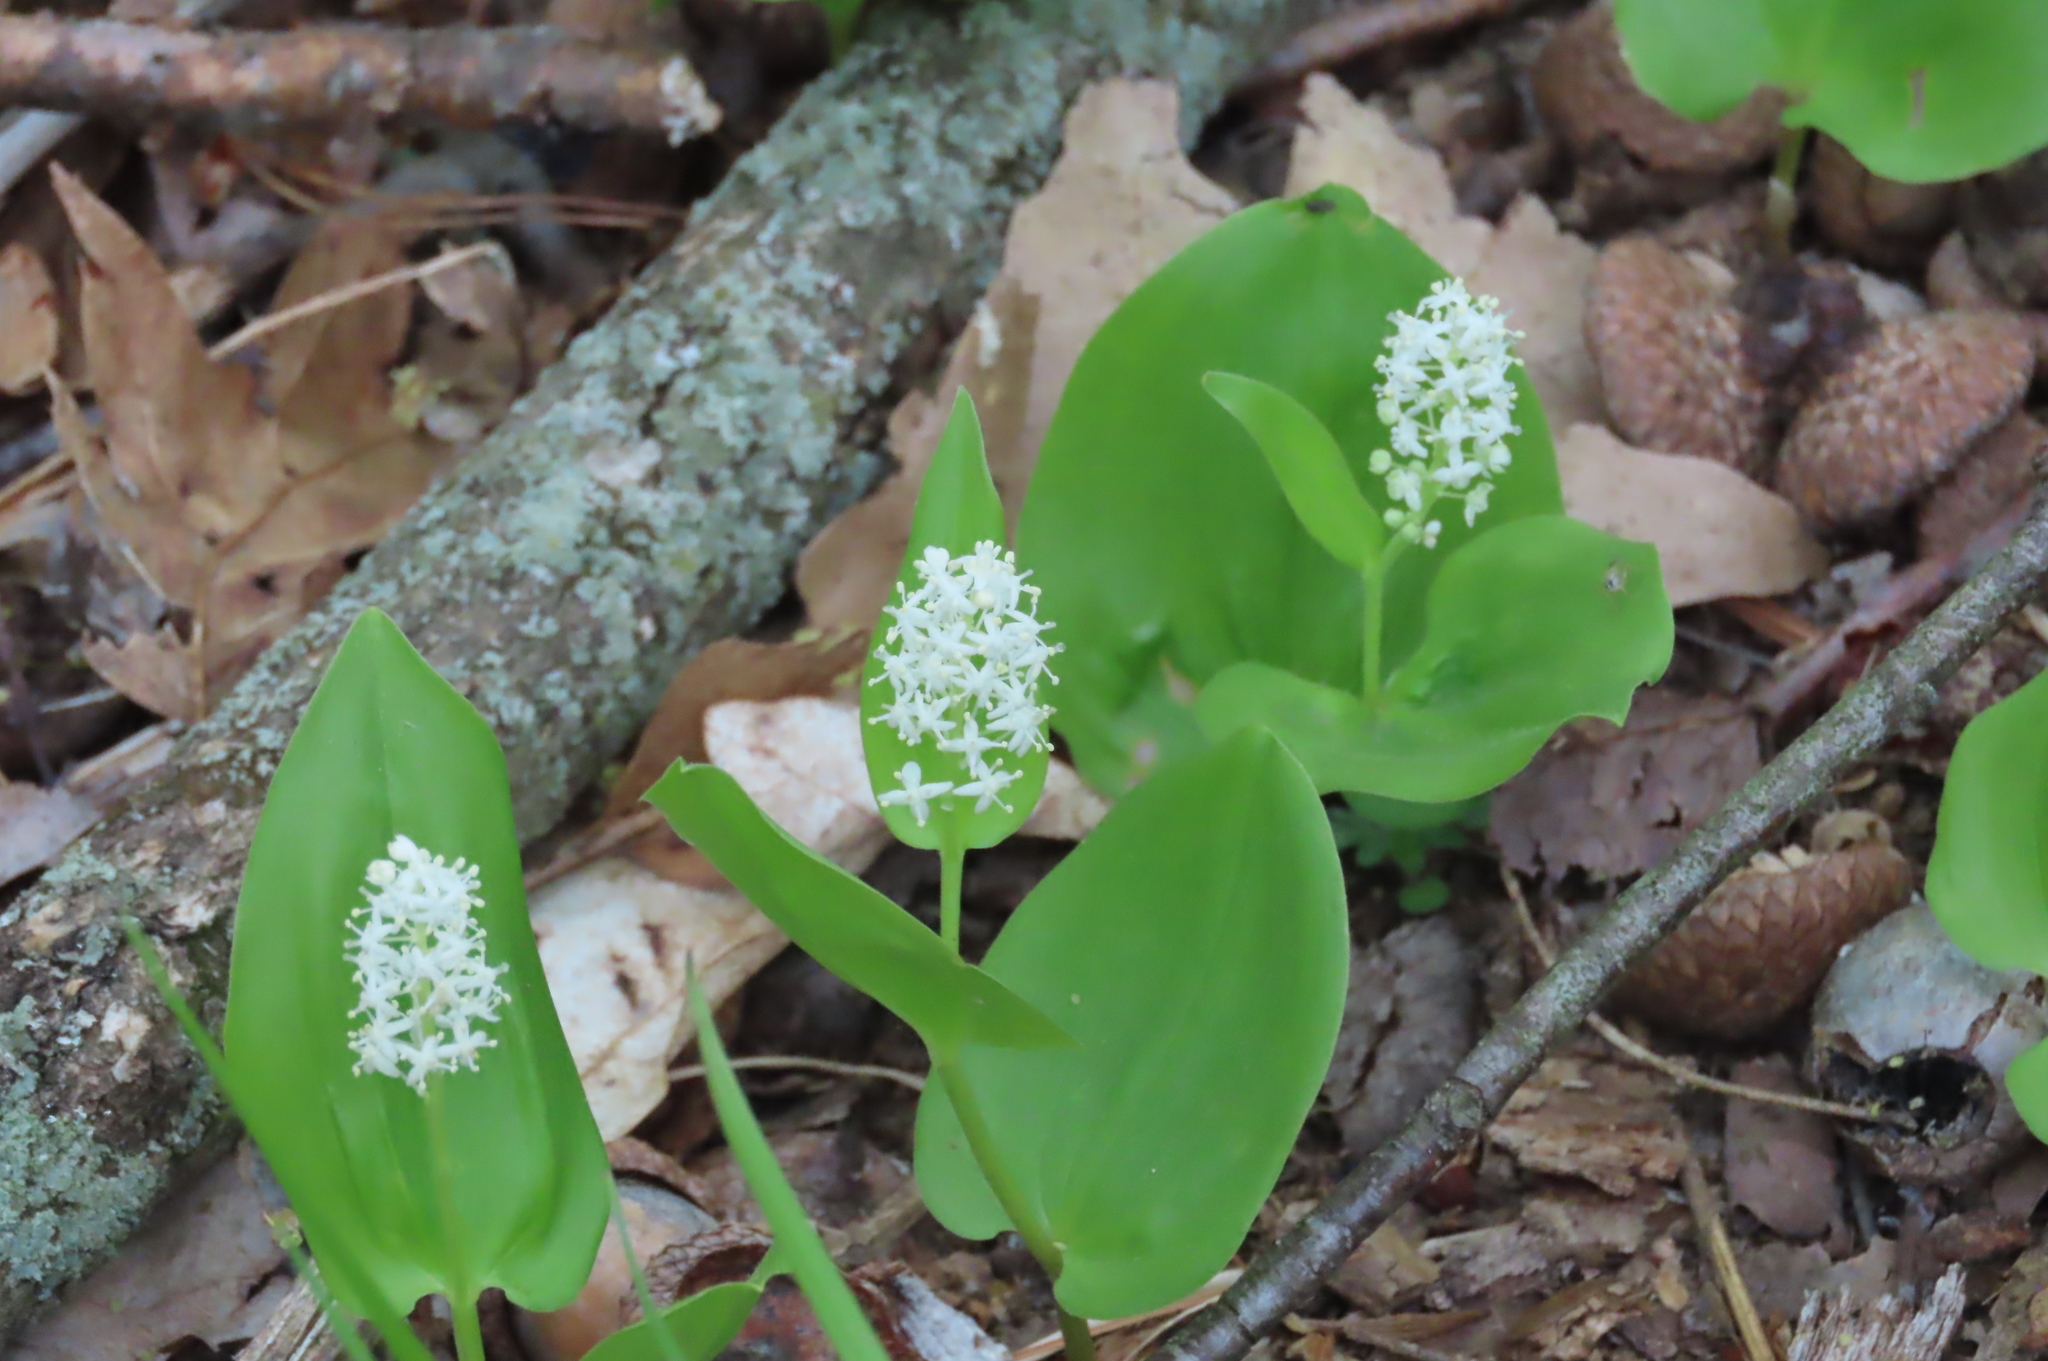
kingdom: Plantae
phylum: Tracheophyta
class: Liliopsida
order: Asparagales
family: Asparagaceae
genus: Maianthemum
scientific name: Maianthemum canadense
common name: False lily-of-the-valley
